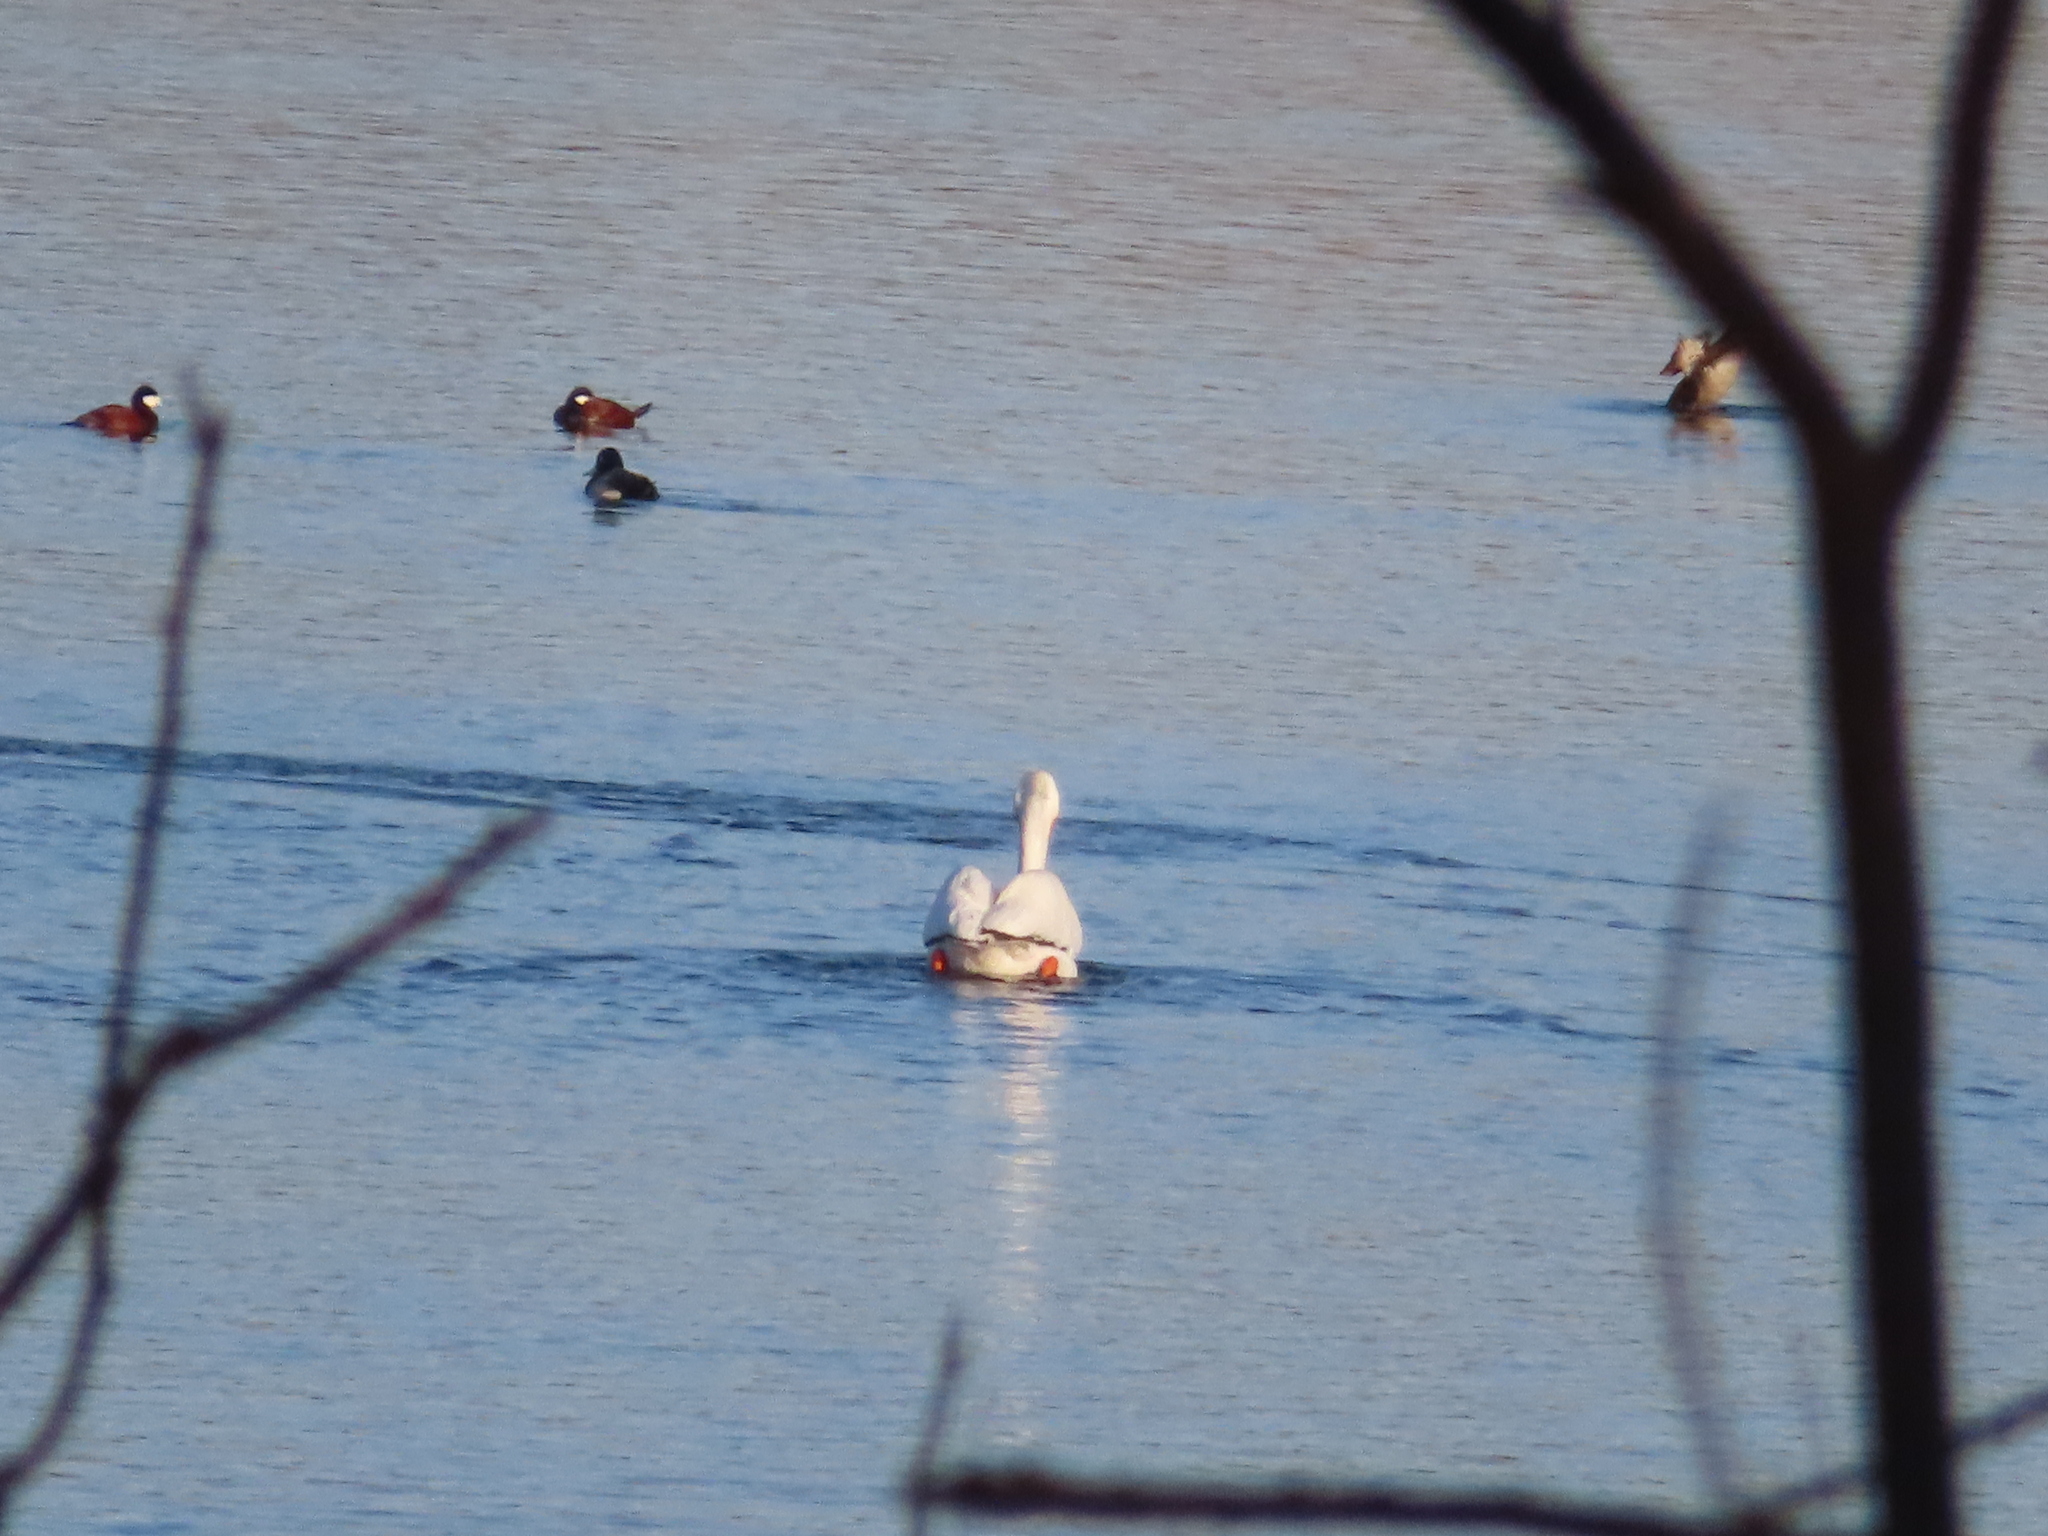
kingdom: Animalia
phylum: Chordata
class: Aves
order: Pelecaniformes
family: Pelecanidae
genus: Pelecanus
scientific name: Pelecanus erythrorhynchos
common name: American white pelican
